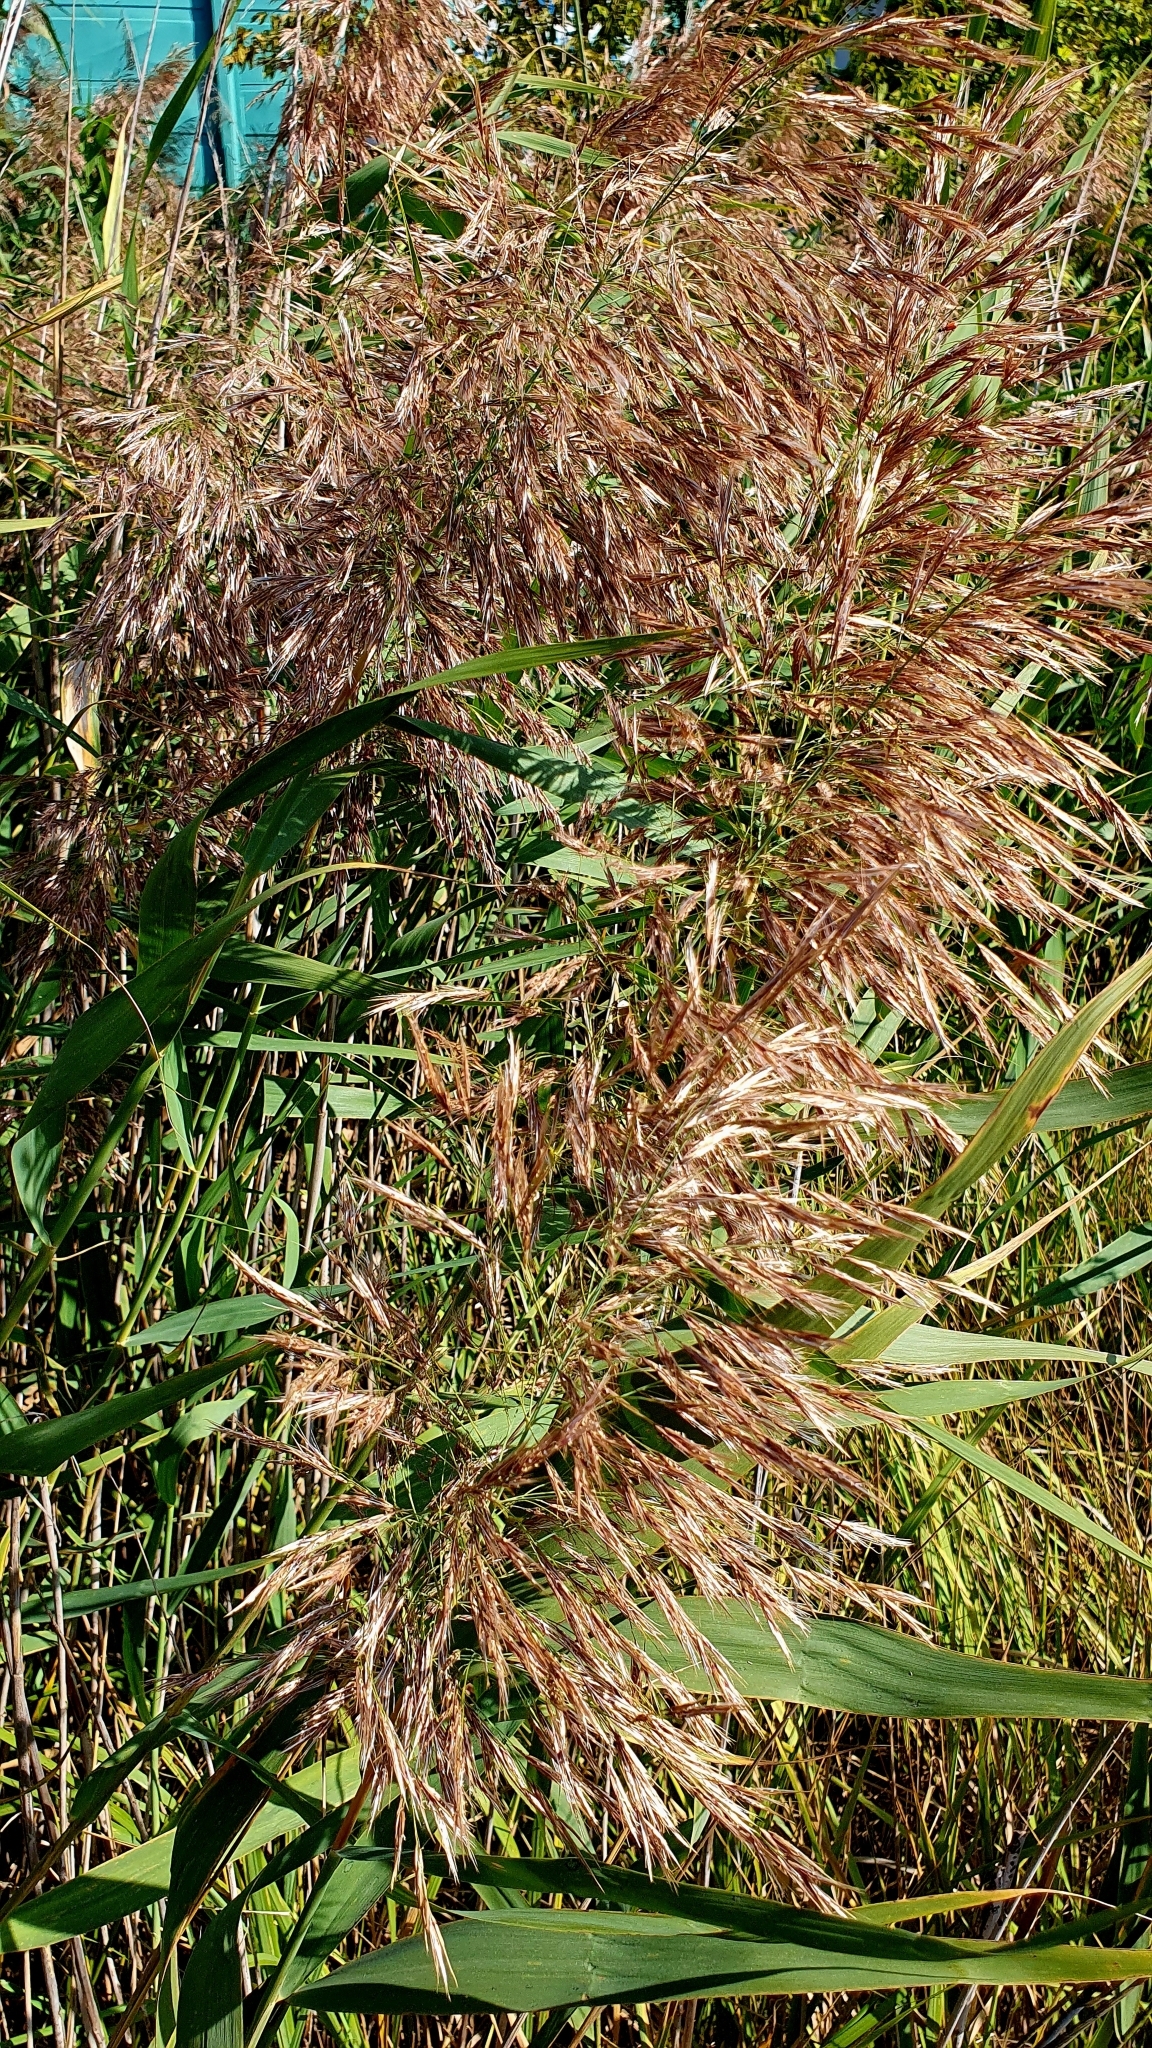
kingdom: Plantae
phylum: Tracheophyta
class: Liliopsida
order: Poales
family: Poaceae
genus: Phragmites
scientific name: Phragmites australis
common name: Common reed
